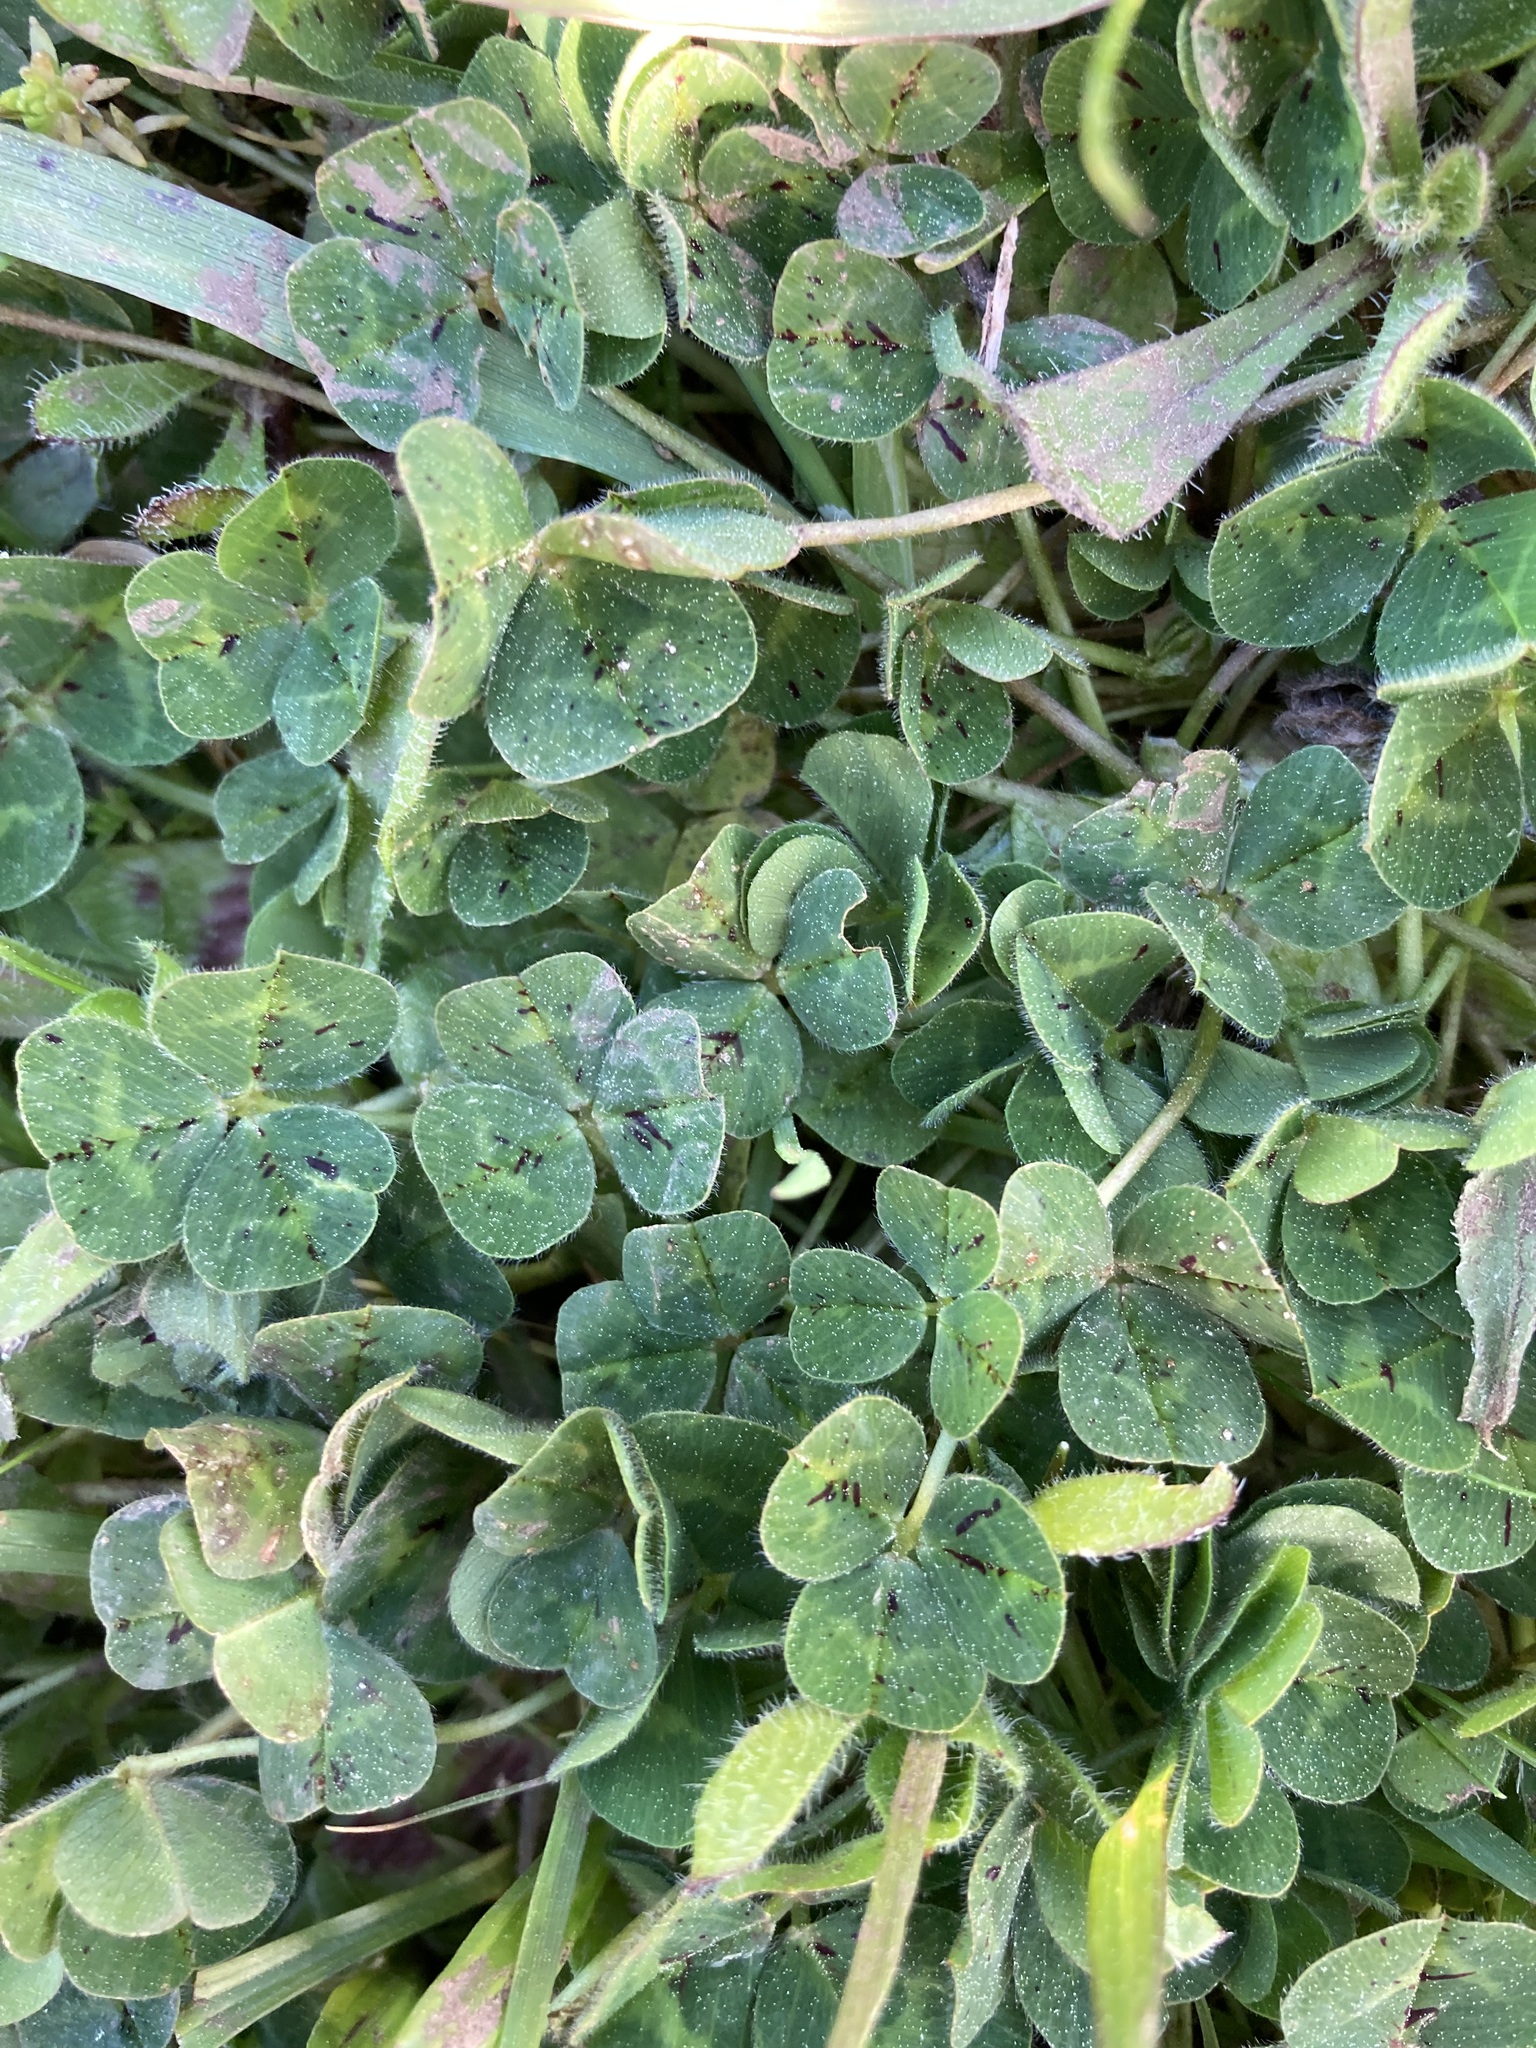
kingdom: Plantae
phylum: Tracheophyta
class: Magnoliopsida
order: Fabales
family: Fabaceae
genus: Trifolium
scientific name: Trifolium subterraneum
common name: Subterranean clover
